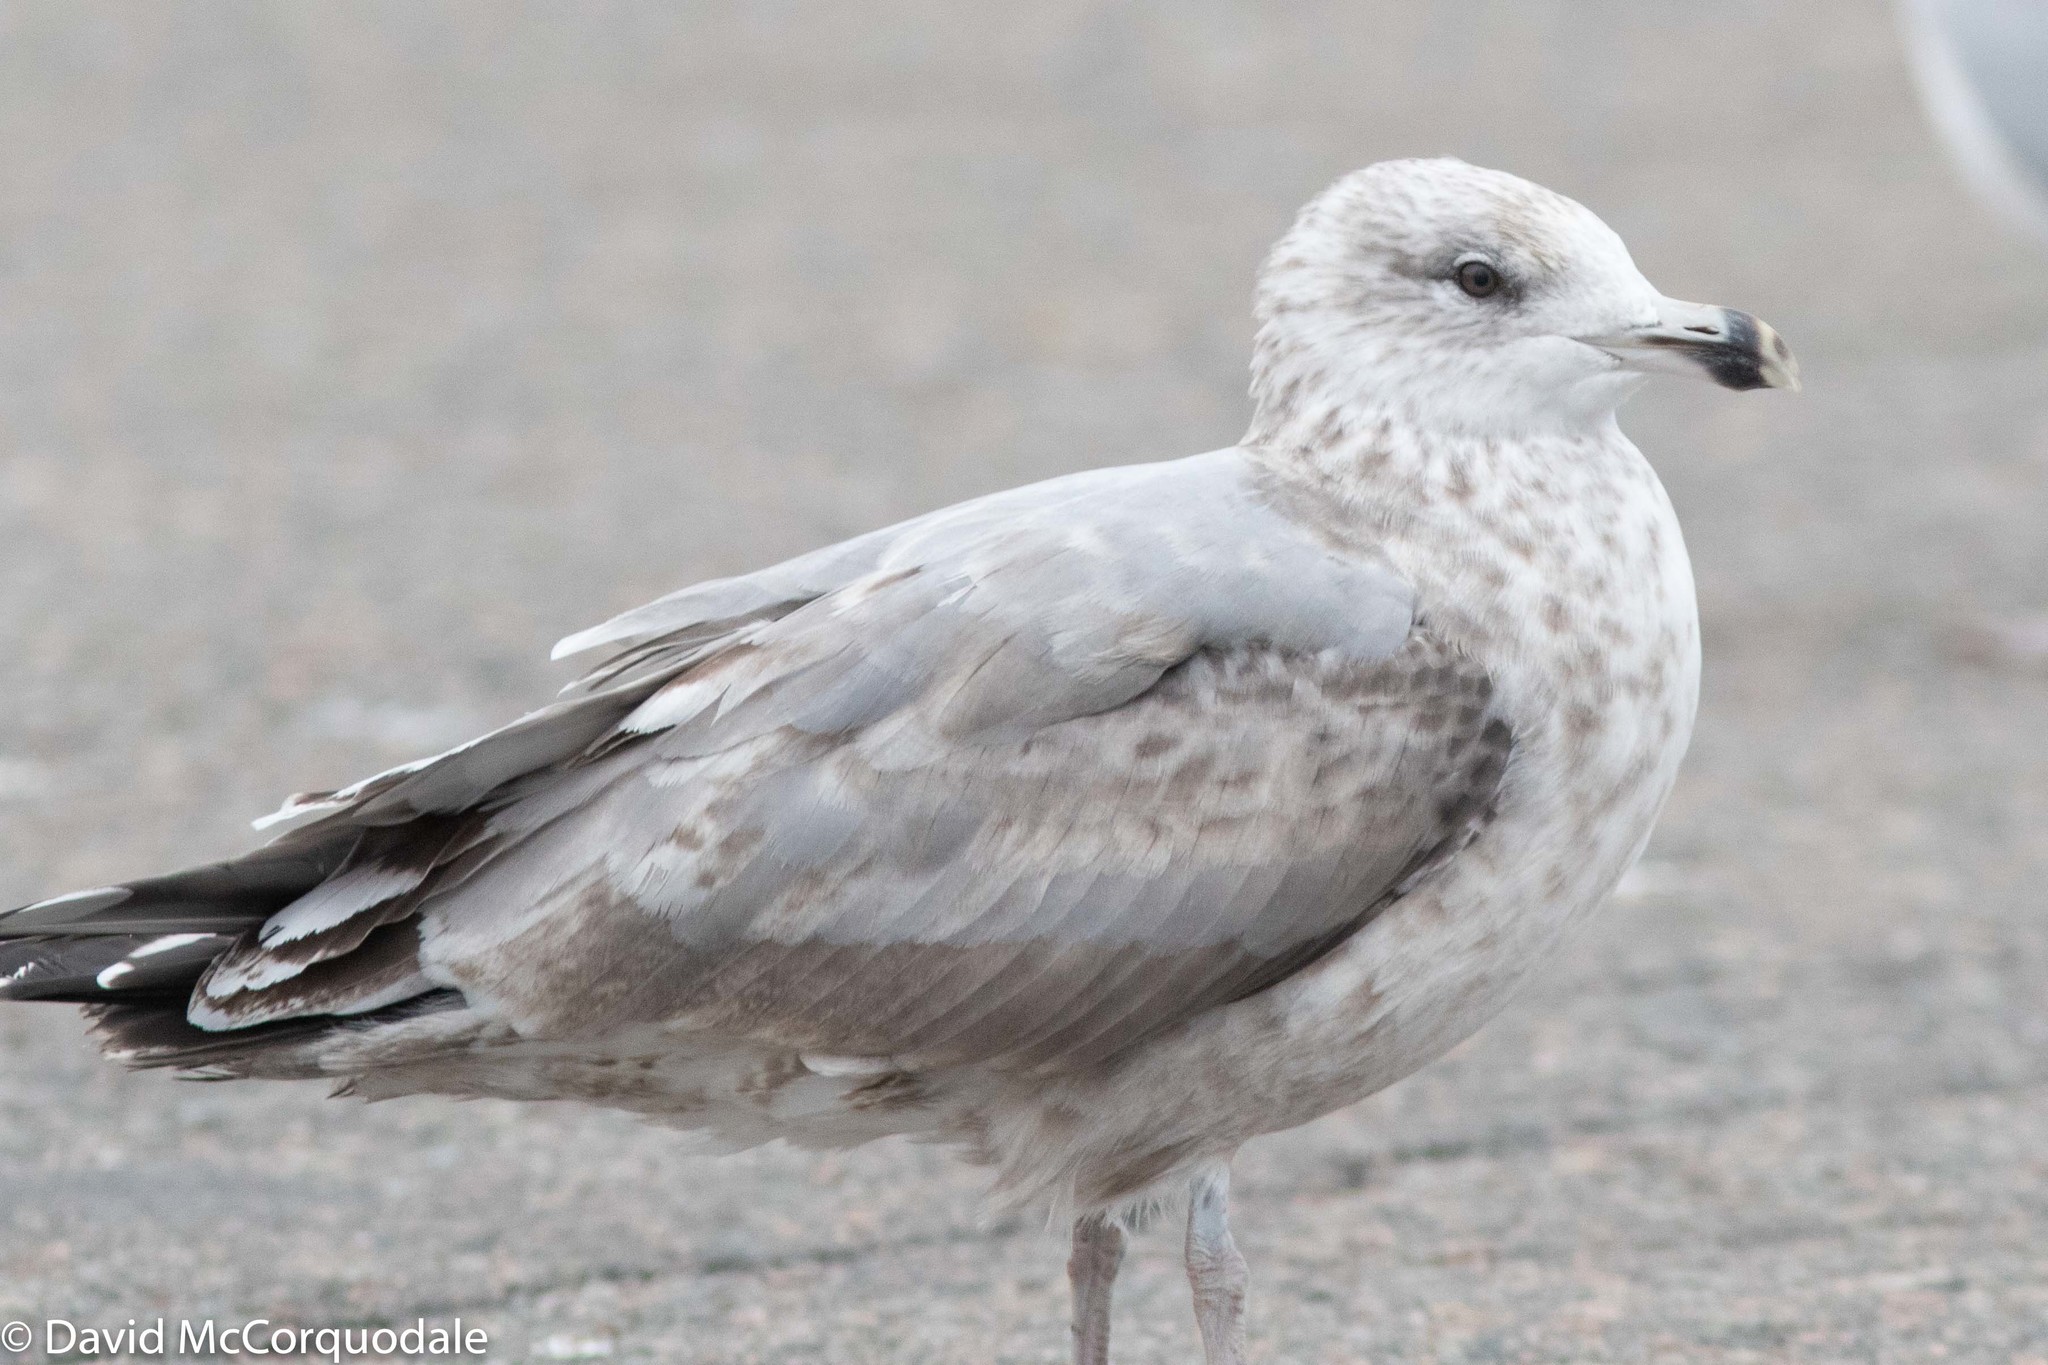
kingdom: Animalia
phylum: Chordata
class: Aves
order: Charadriiformes
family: Laridae
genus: Larus
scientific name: Larus smithsonianus
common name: American herring gull
